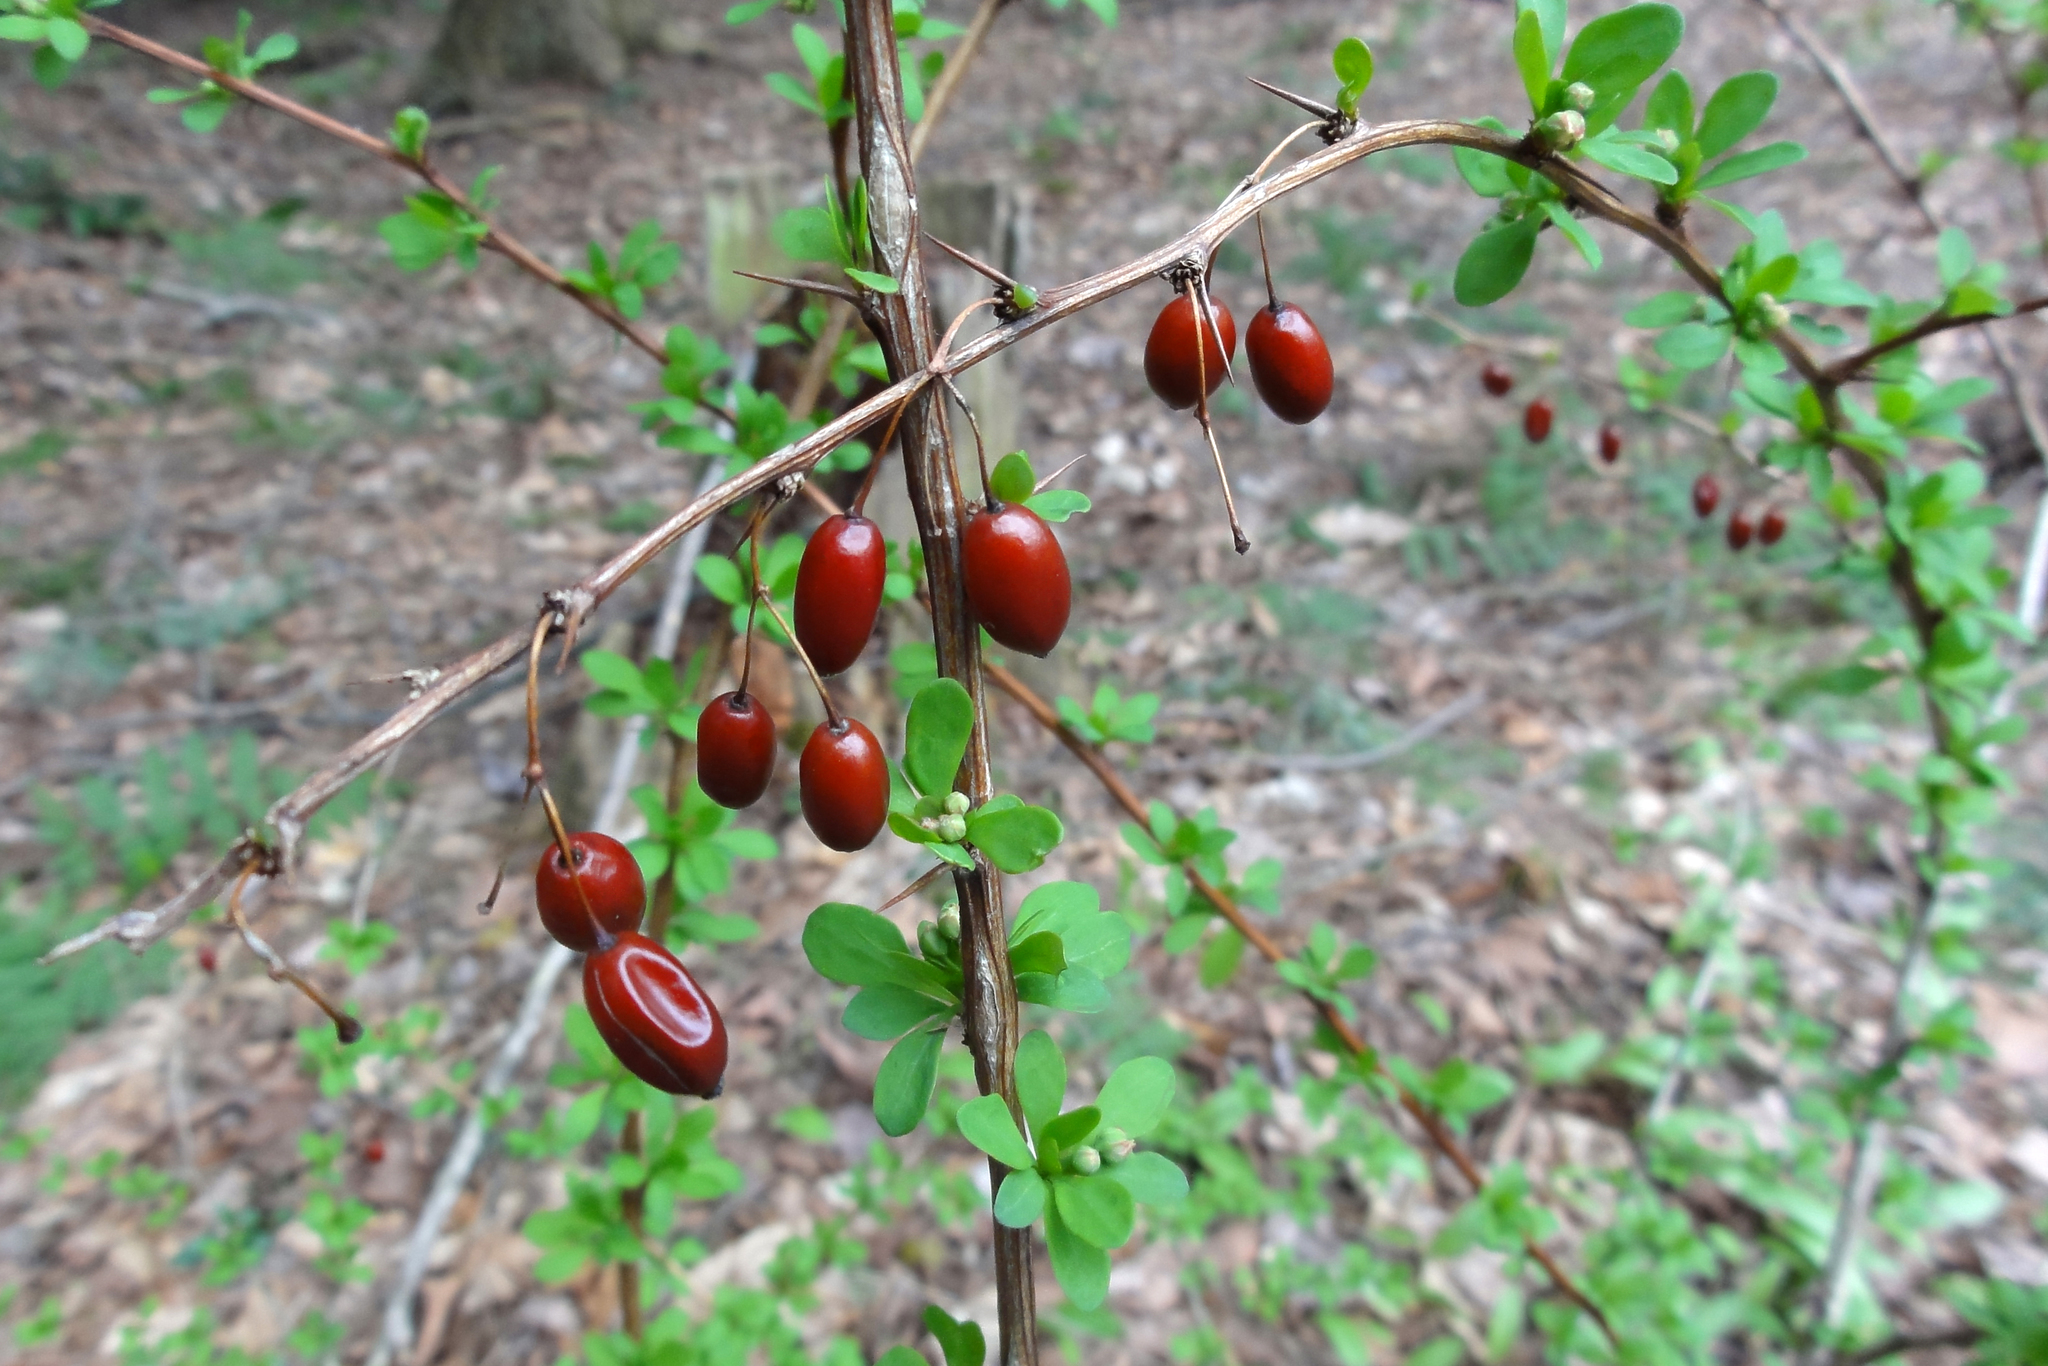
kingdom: Plantae
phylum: Tracheophyta
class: Magnoliopsida
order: Ranunculales
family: Berberidaceae
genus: Berberis
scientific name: Berberis thunbergii
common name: Japanese barberry
